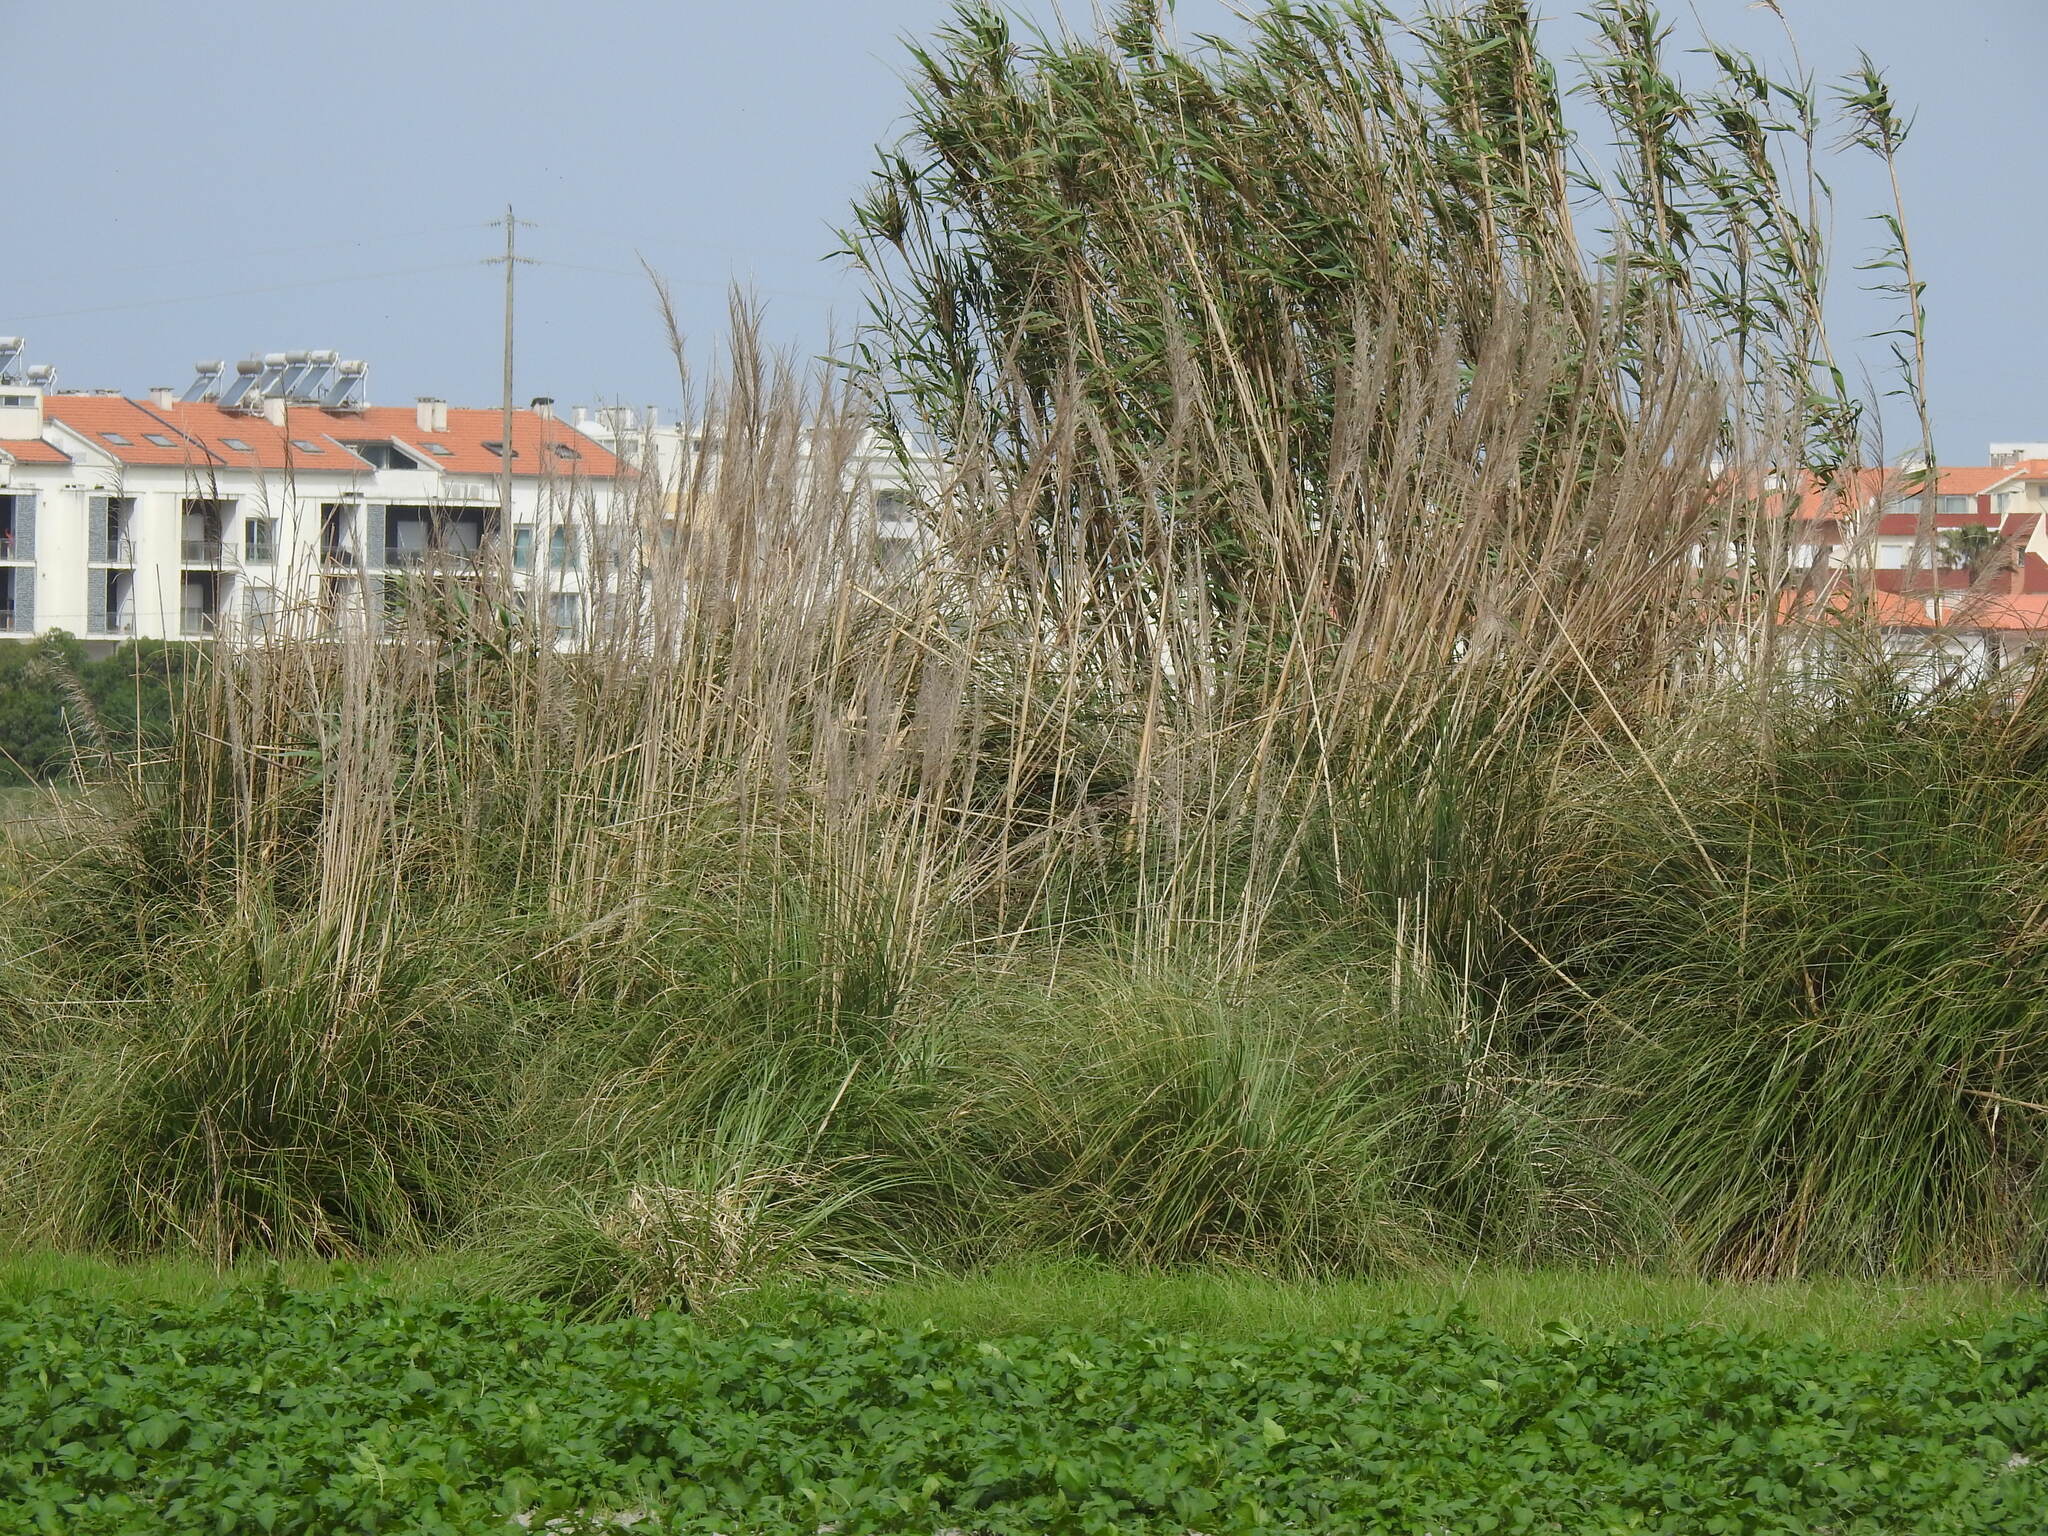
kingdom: Plantae
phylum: Tracheophyta
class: Liliopsida
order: Poales
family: Poaceae
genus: Cortaderia
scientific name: Cortaderia selloana
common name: Uruguayan pampas grass
